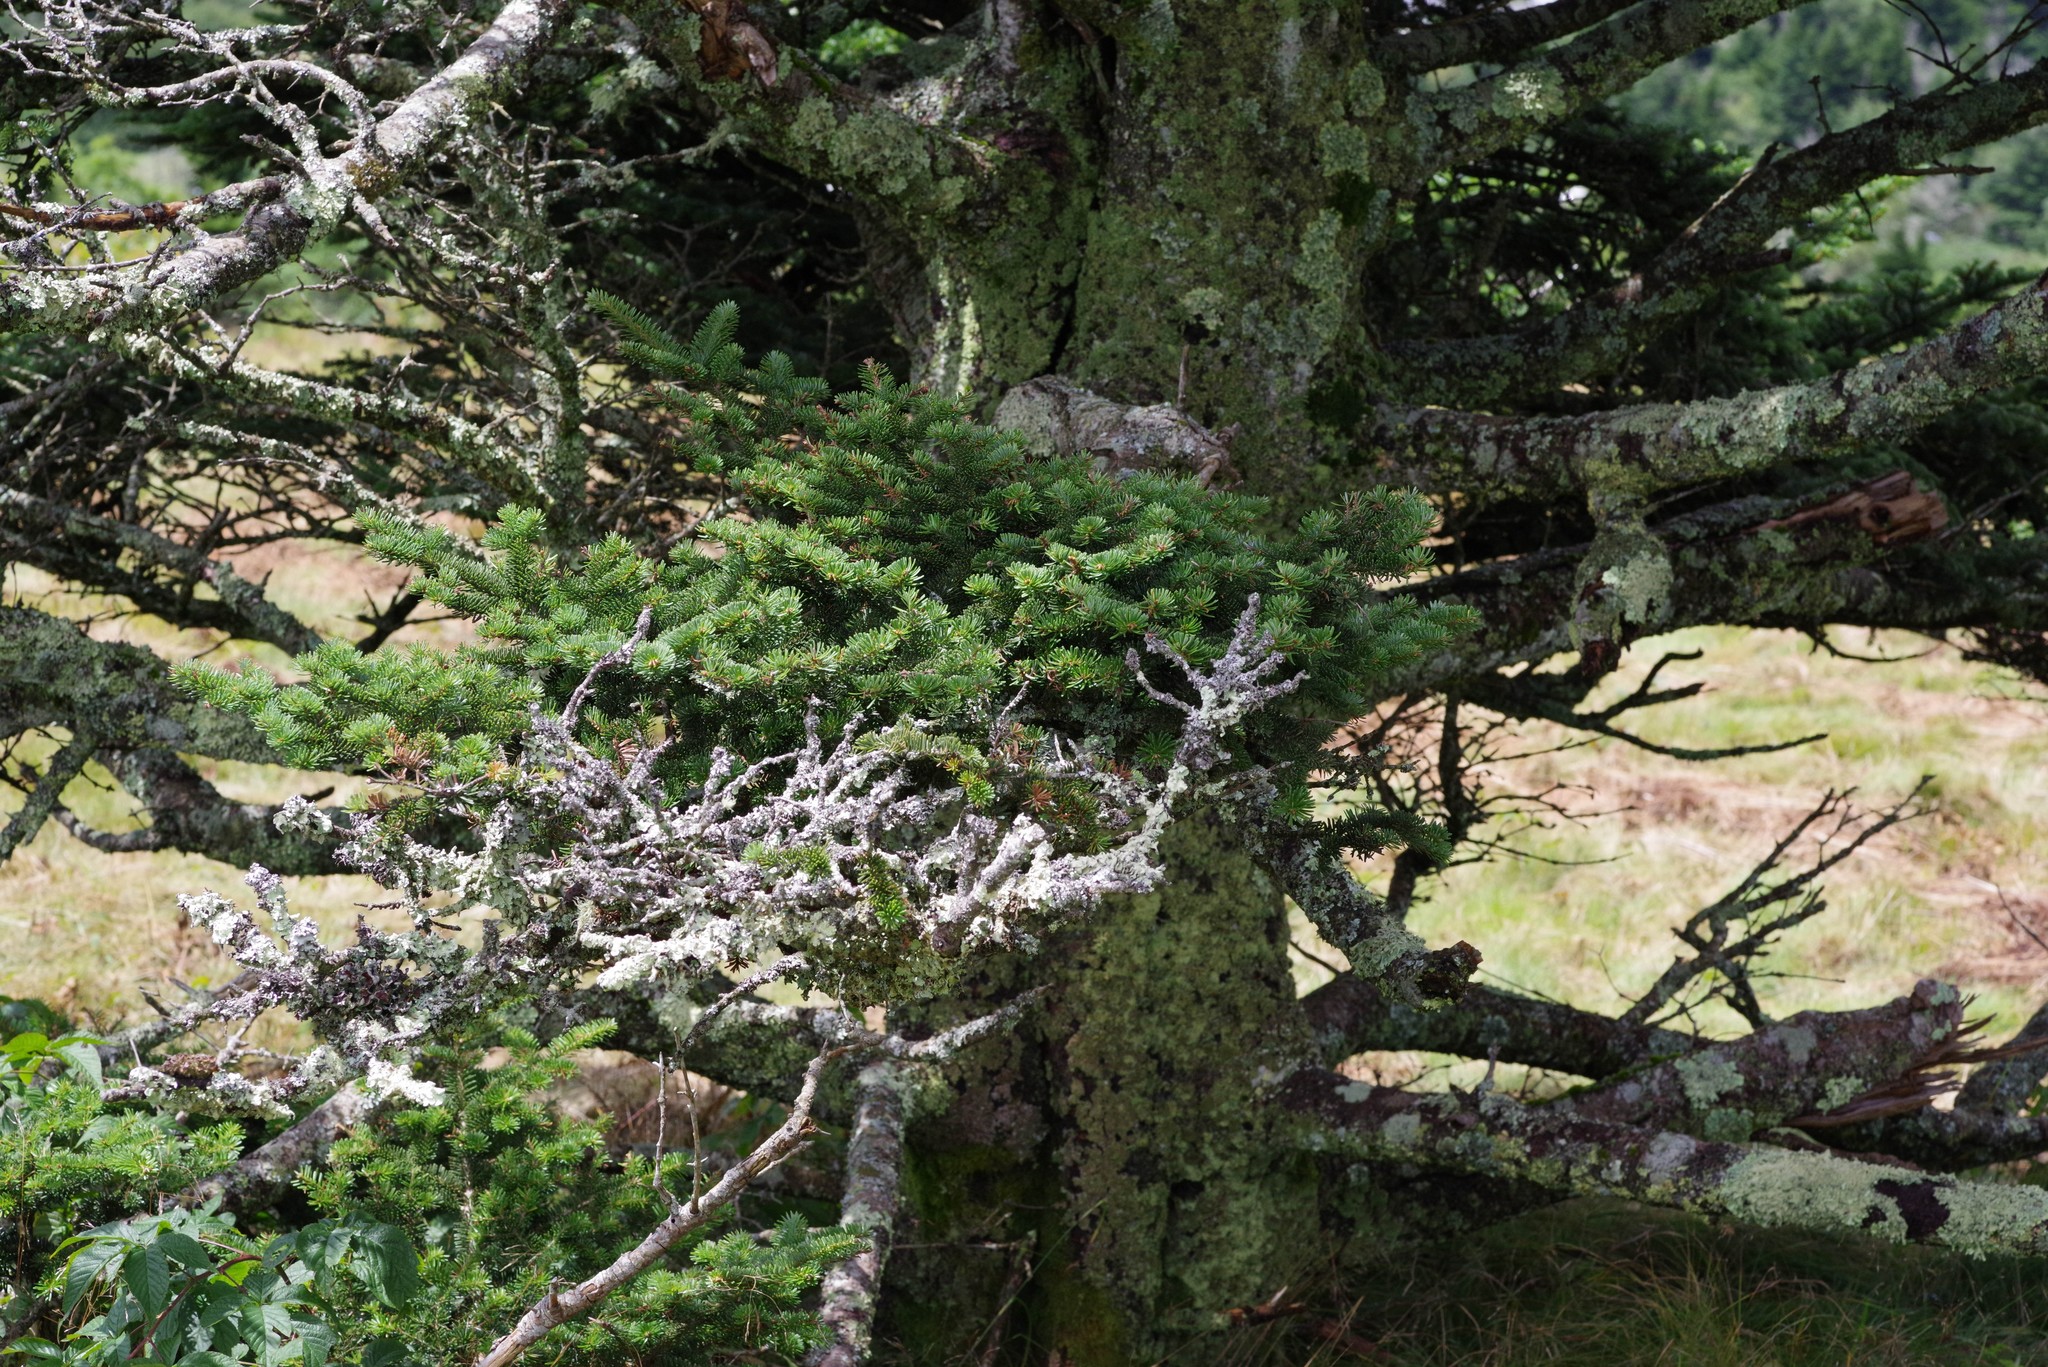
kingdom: Plantae
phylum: Tracheophyta
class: Pinopsida
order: Pinales
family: Pinaceae
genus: Abies
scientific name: Abies fraseri
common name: Fraser fir
